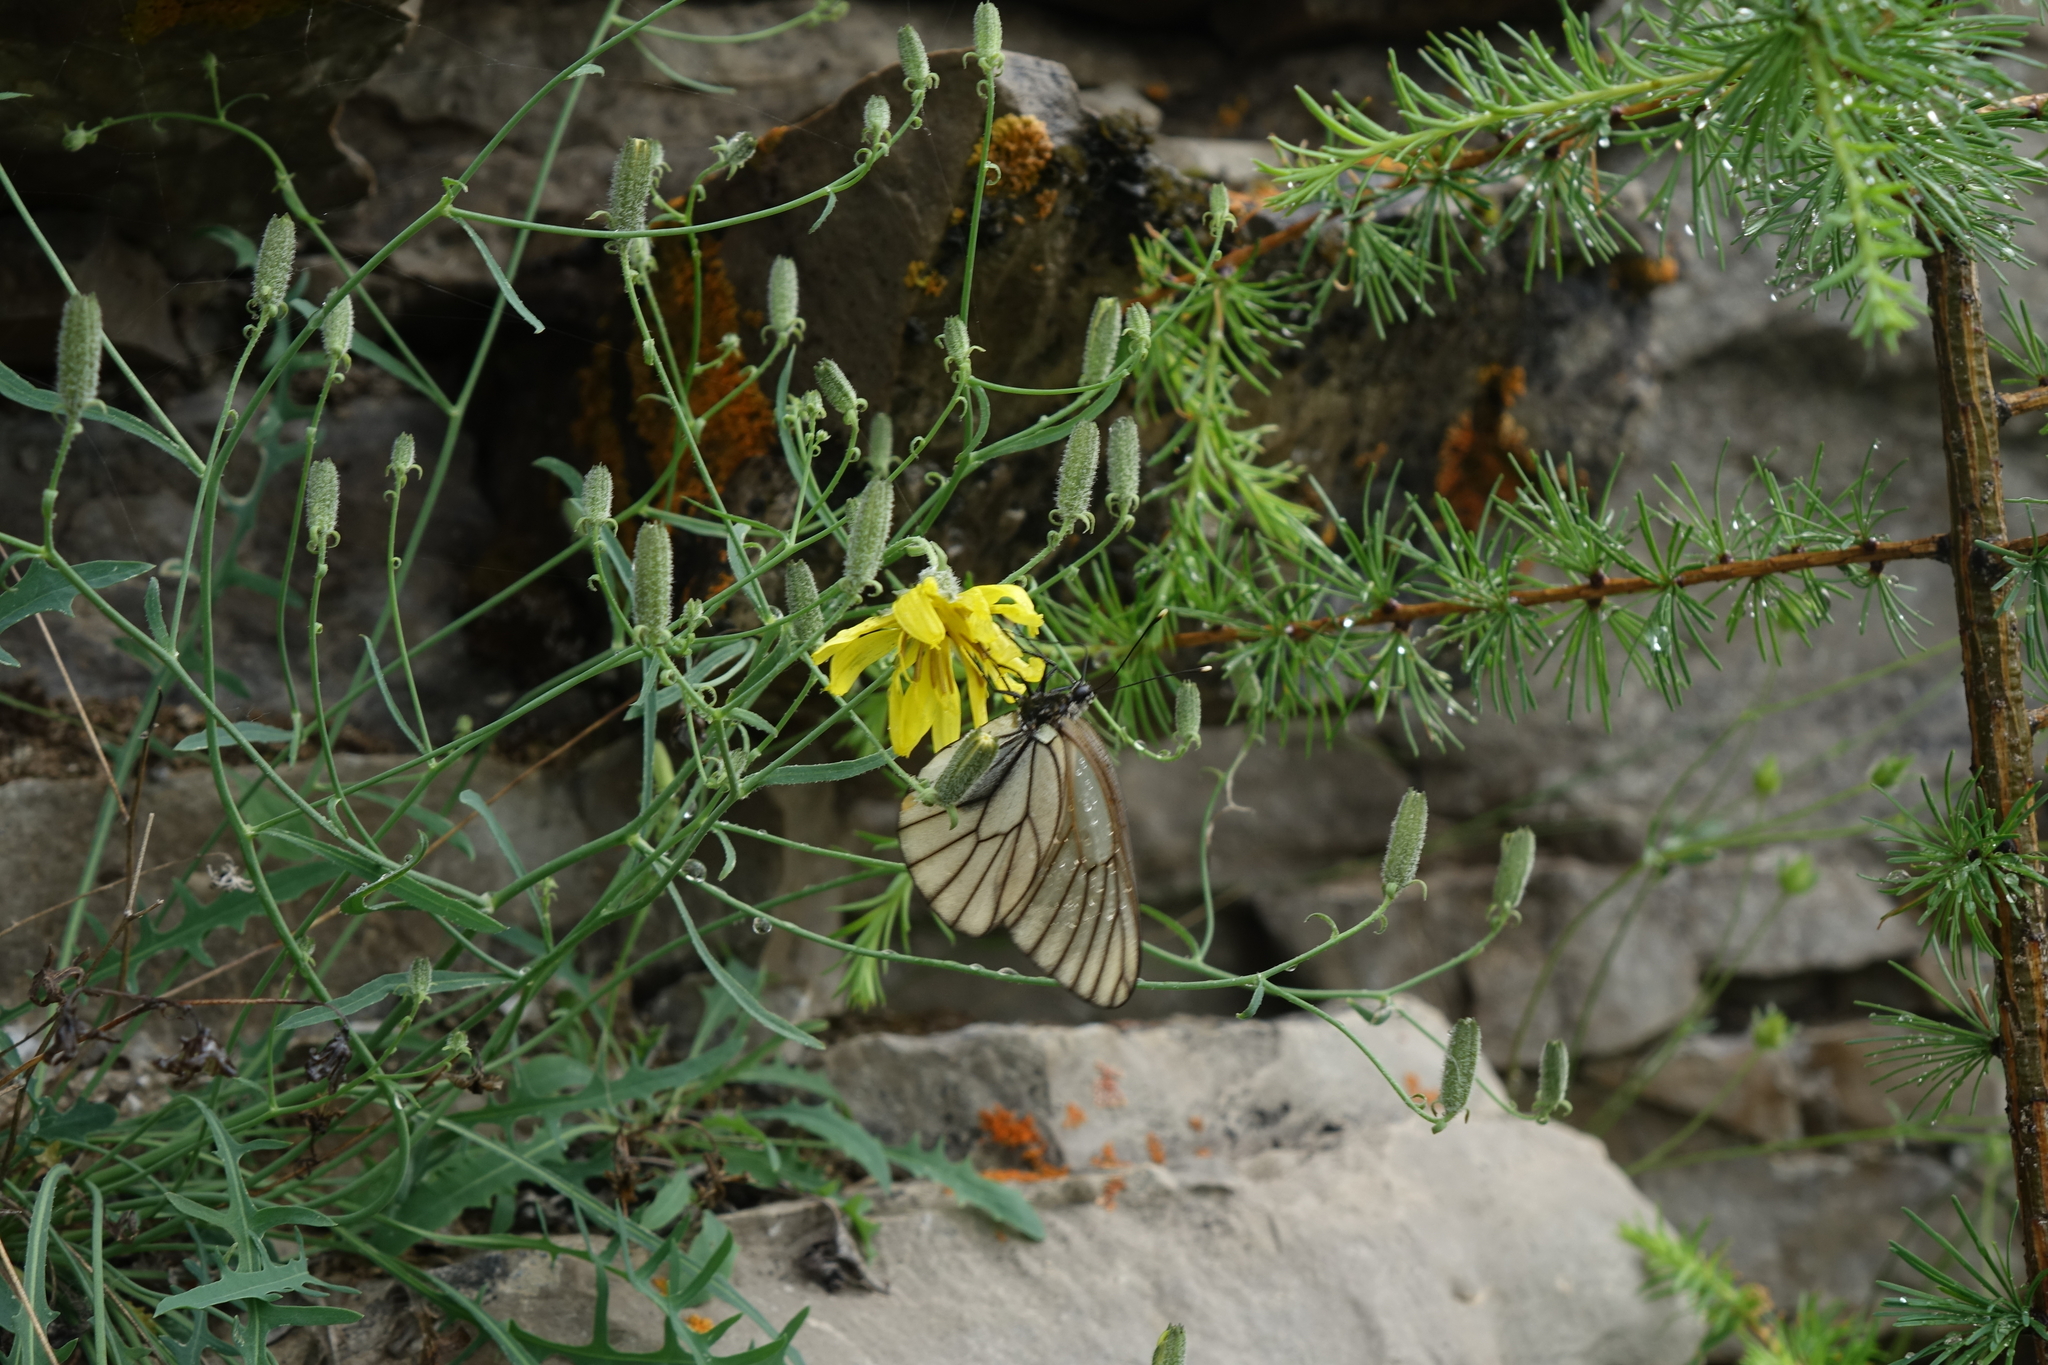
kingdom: Animalia
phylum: Arthropoda
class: Insecta
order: Lepidoptera
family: Pieridae
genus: Aporia
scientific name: Aporia crataegi
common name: Black-veined white
